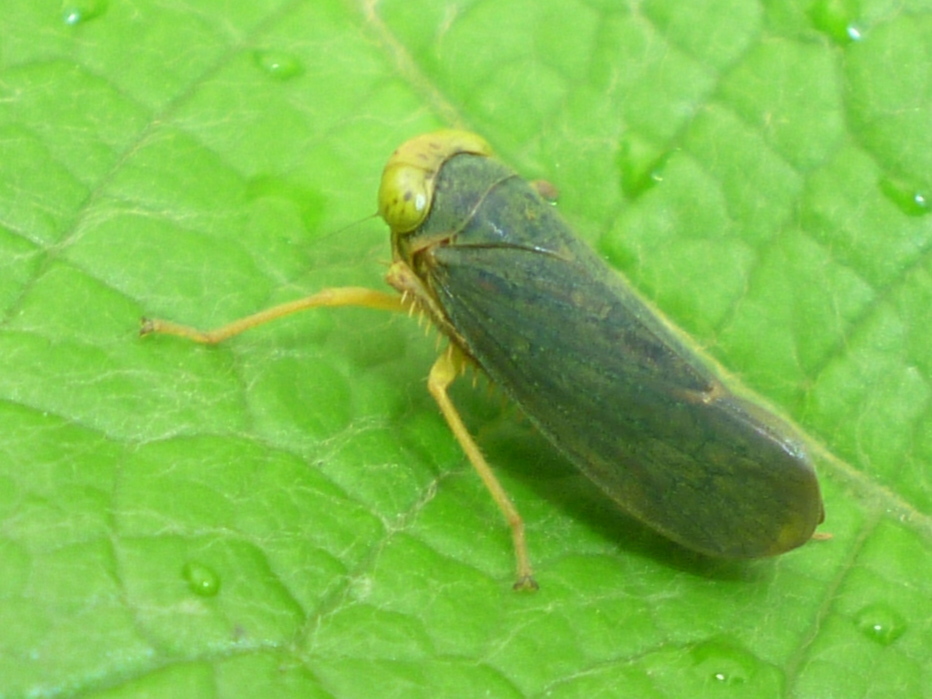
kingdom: Animalia
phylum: Arthropoda
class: Insecta
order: Hemiptera
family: Cicadellidae
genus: Jikradia
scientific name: Jikradia olitoria
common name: Coppery leafhopper
